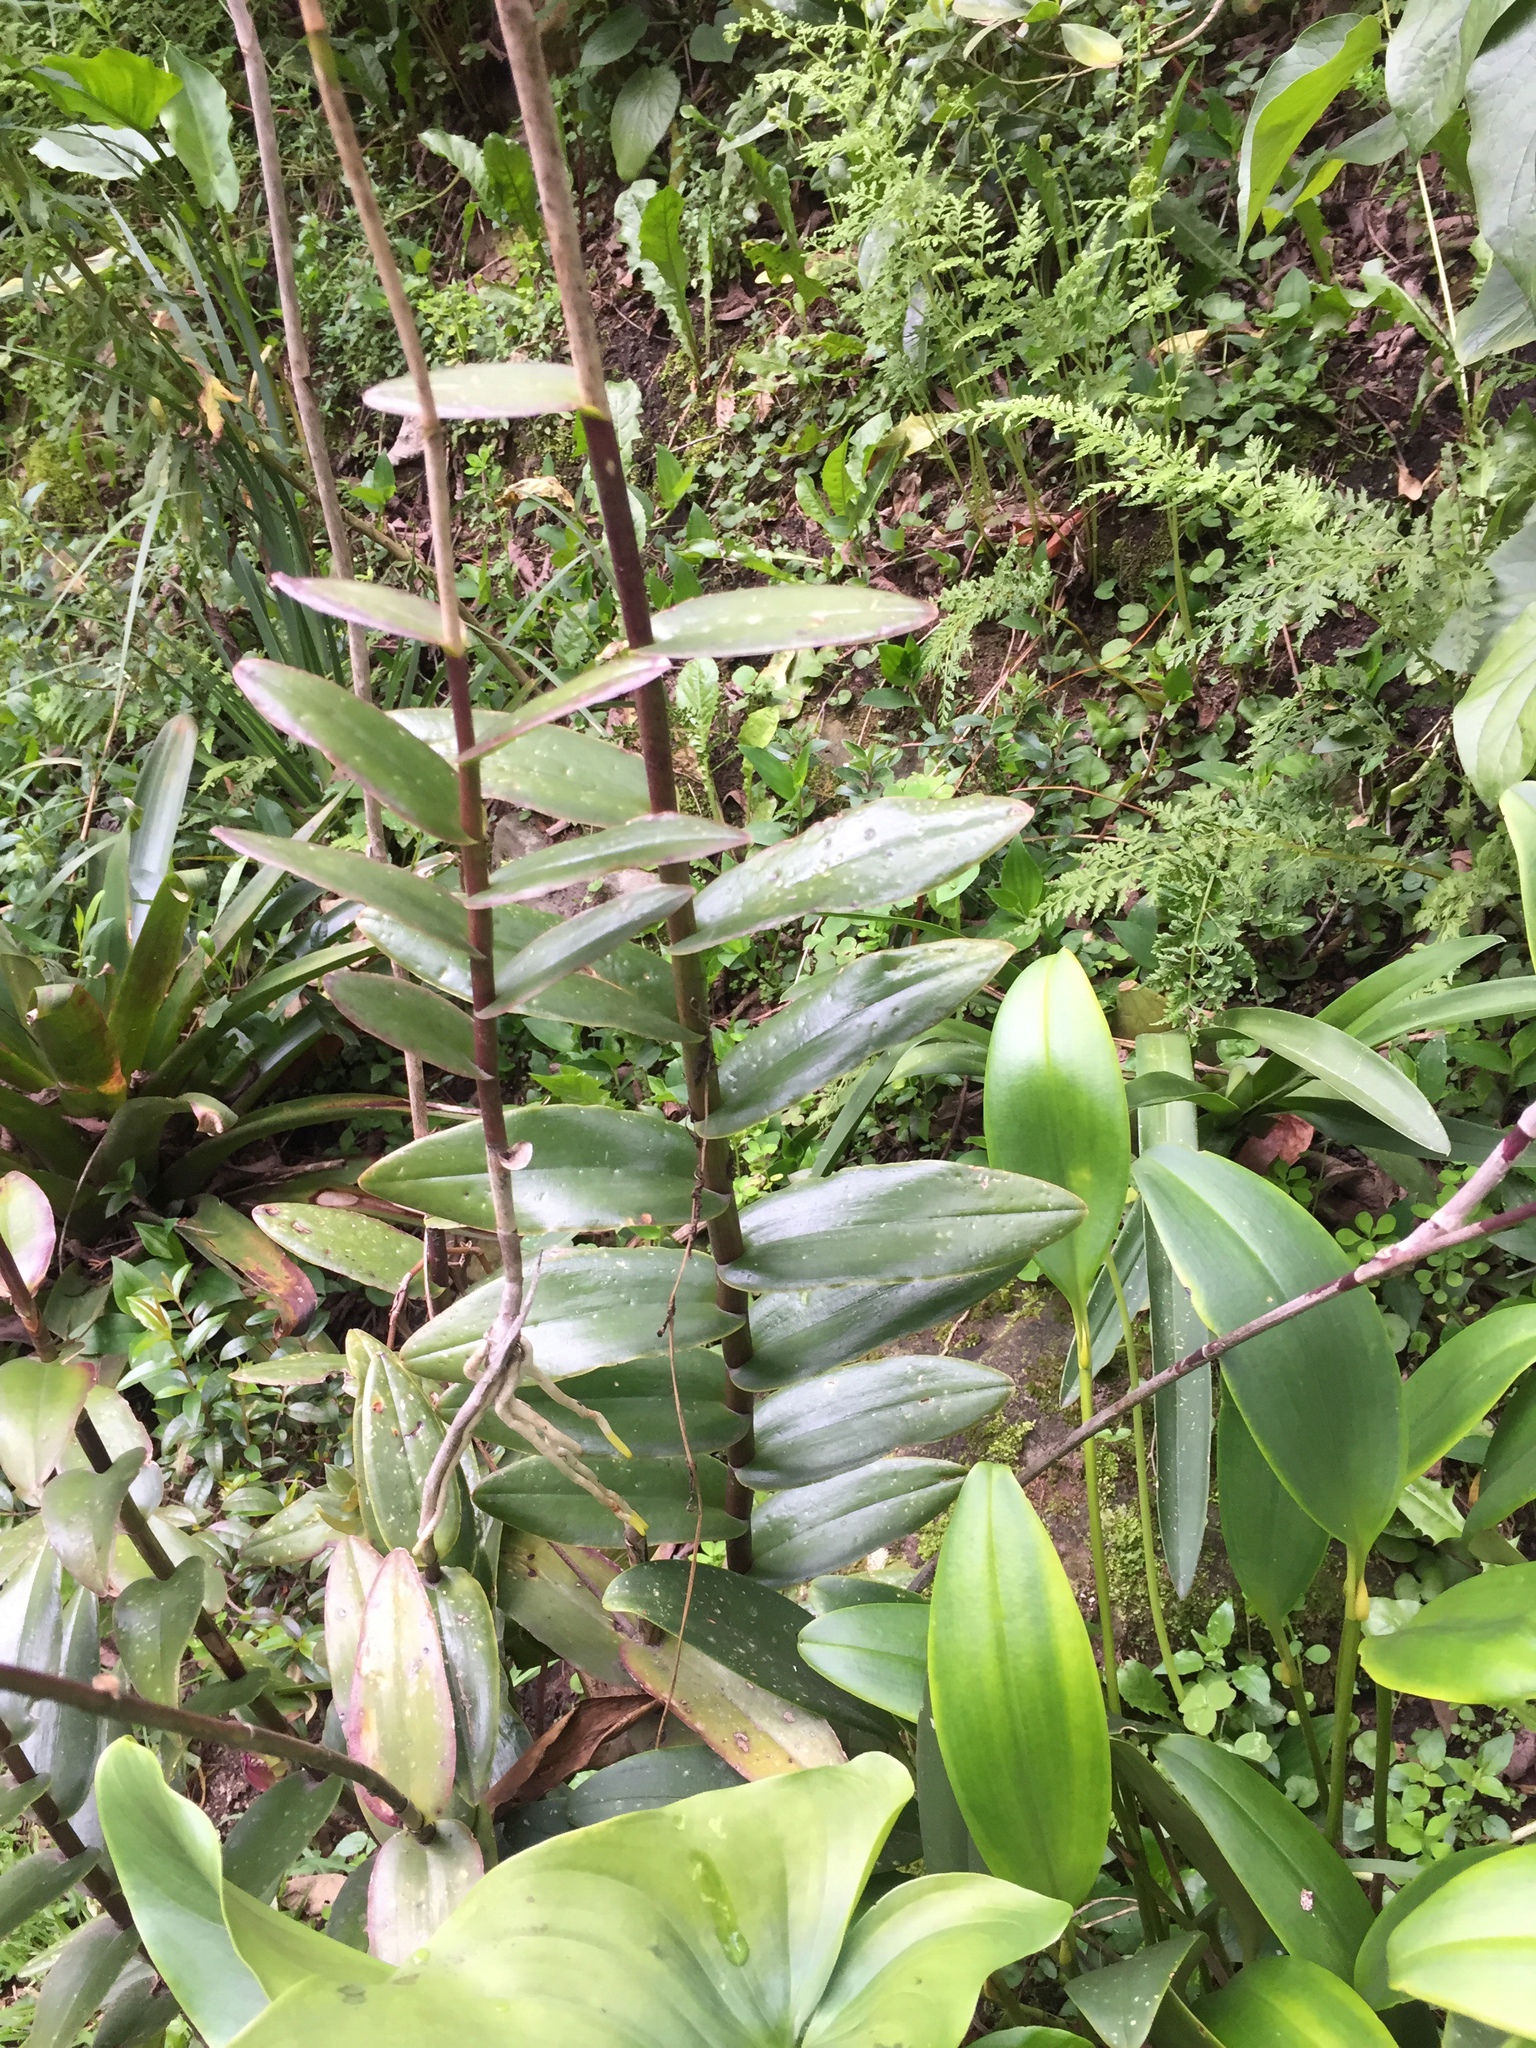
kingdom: Plantae
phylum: Tracheophyta
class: Liliopsida
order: Asparagales
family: Orchidaceae
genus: Epidendrum
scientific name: Epidendrum arachnoglossum
